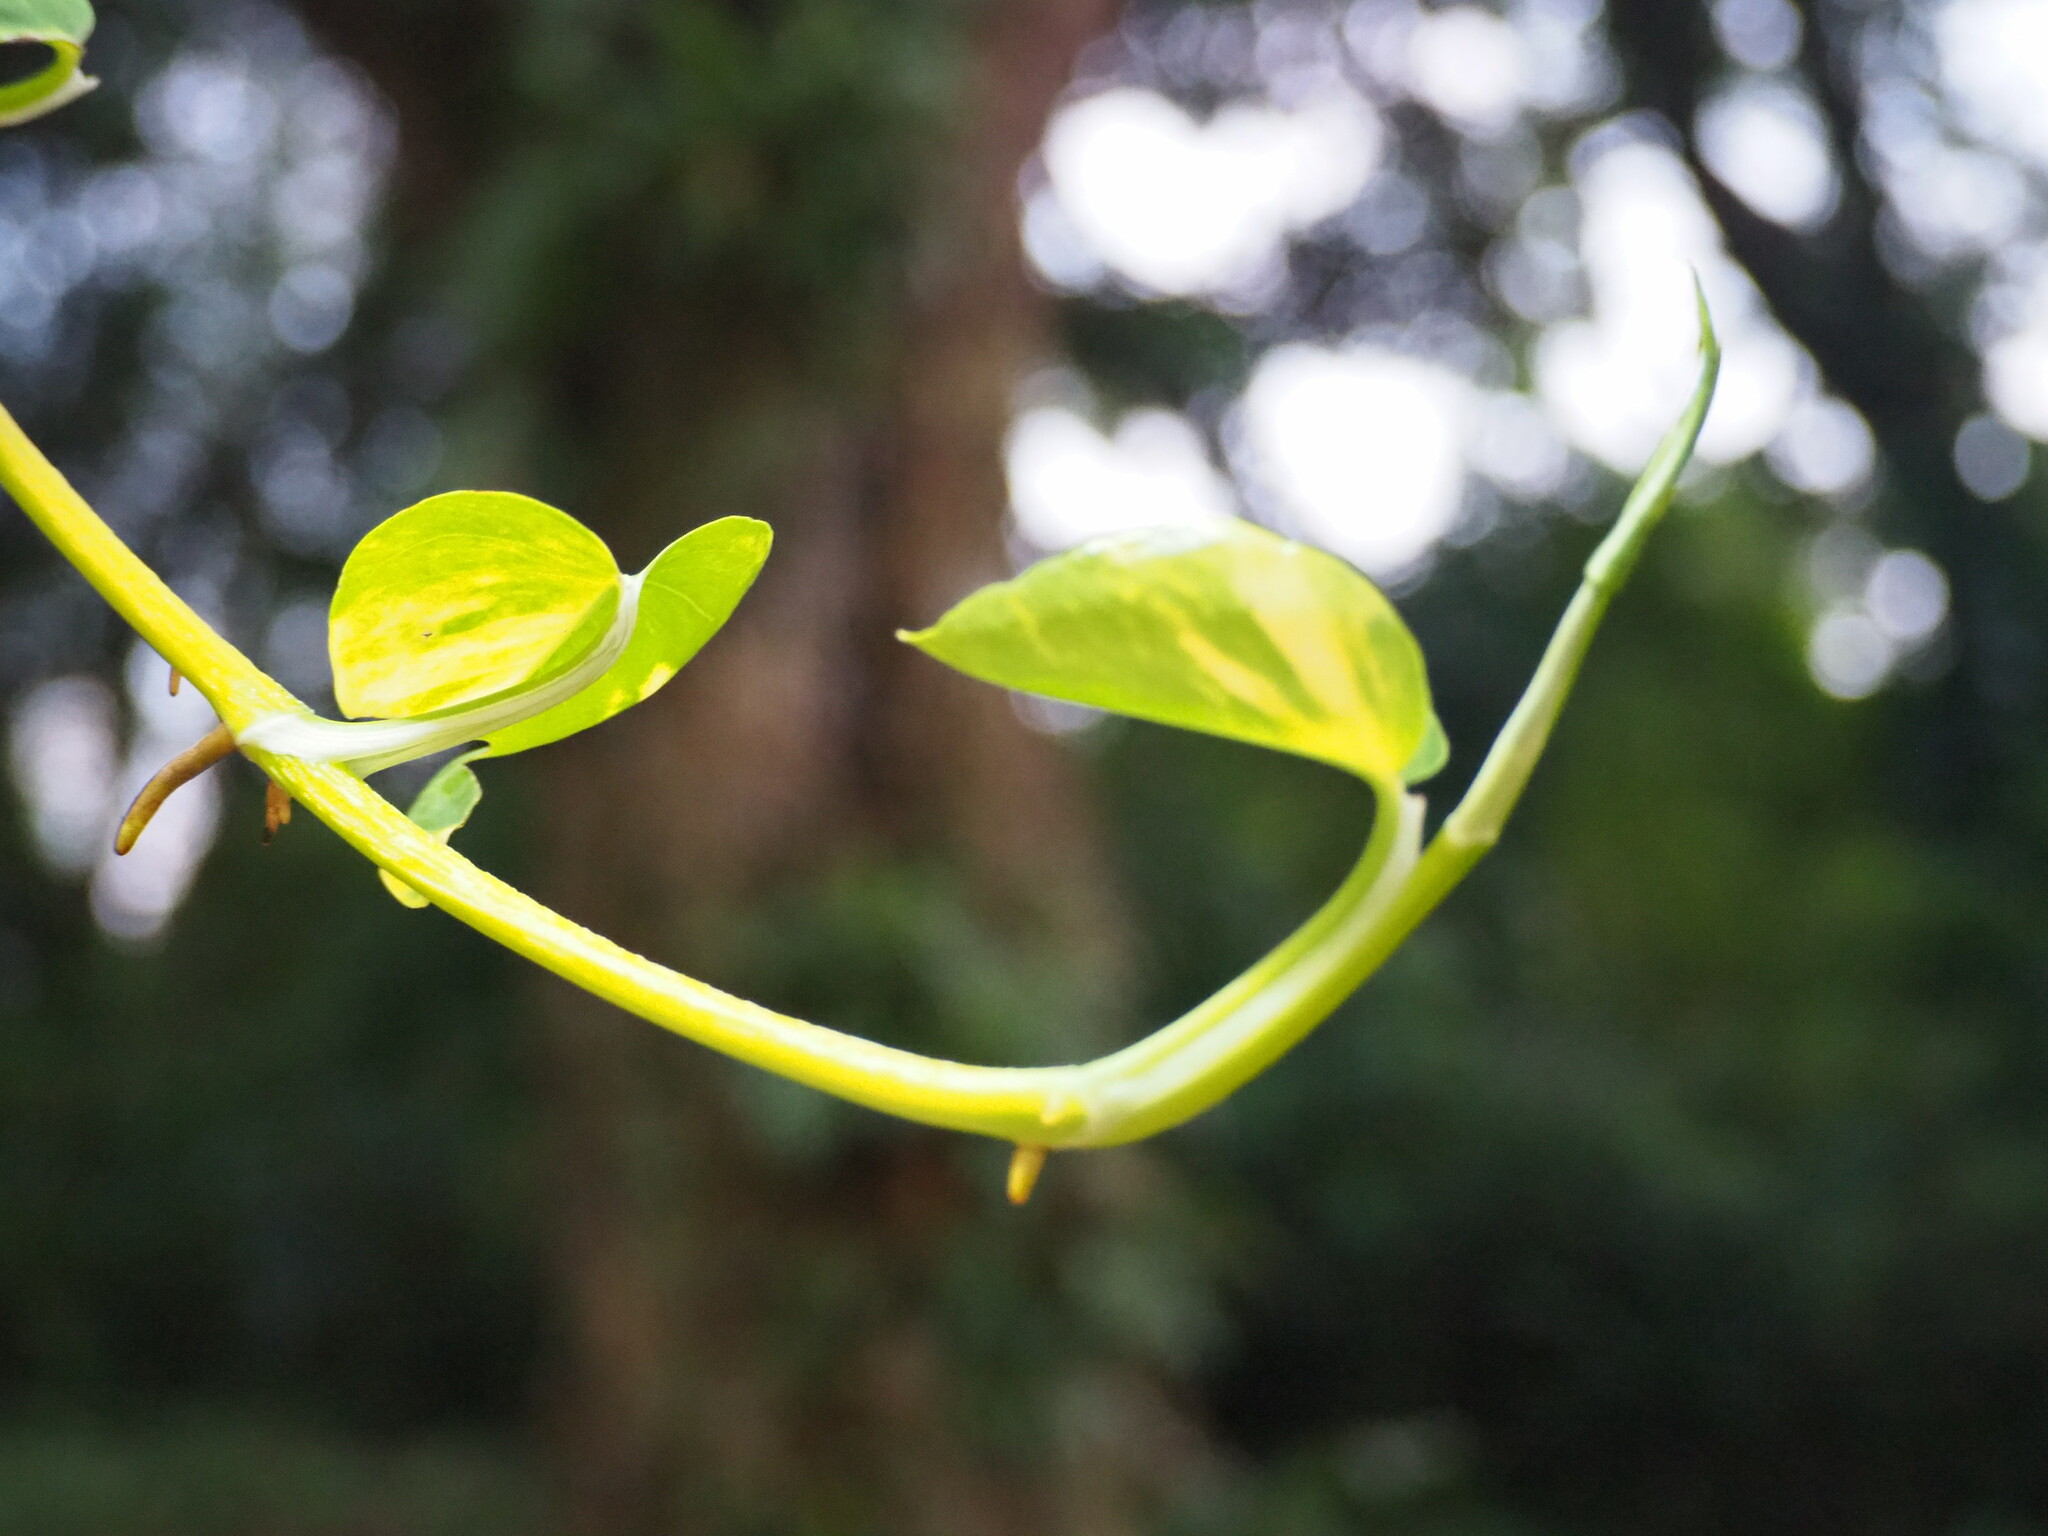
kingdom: Plantae
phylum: Tracheophyta
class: Liliopsida
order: Alismatales
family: Araceae
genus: Epipremnum
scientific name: Epipremnum aureum
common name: Golden hunter's-robe
